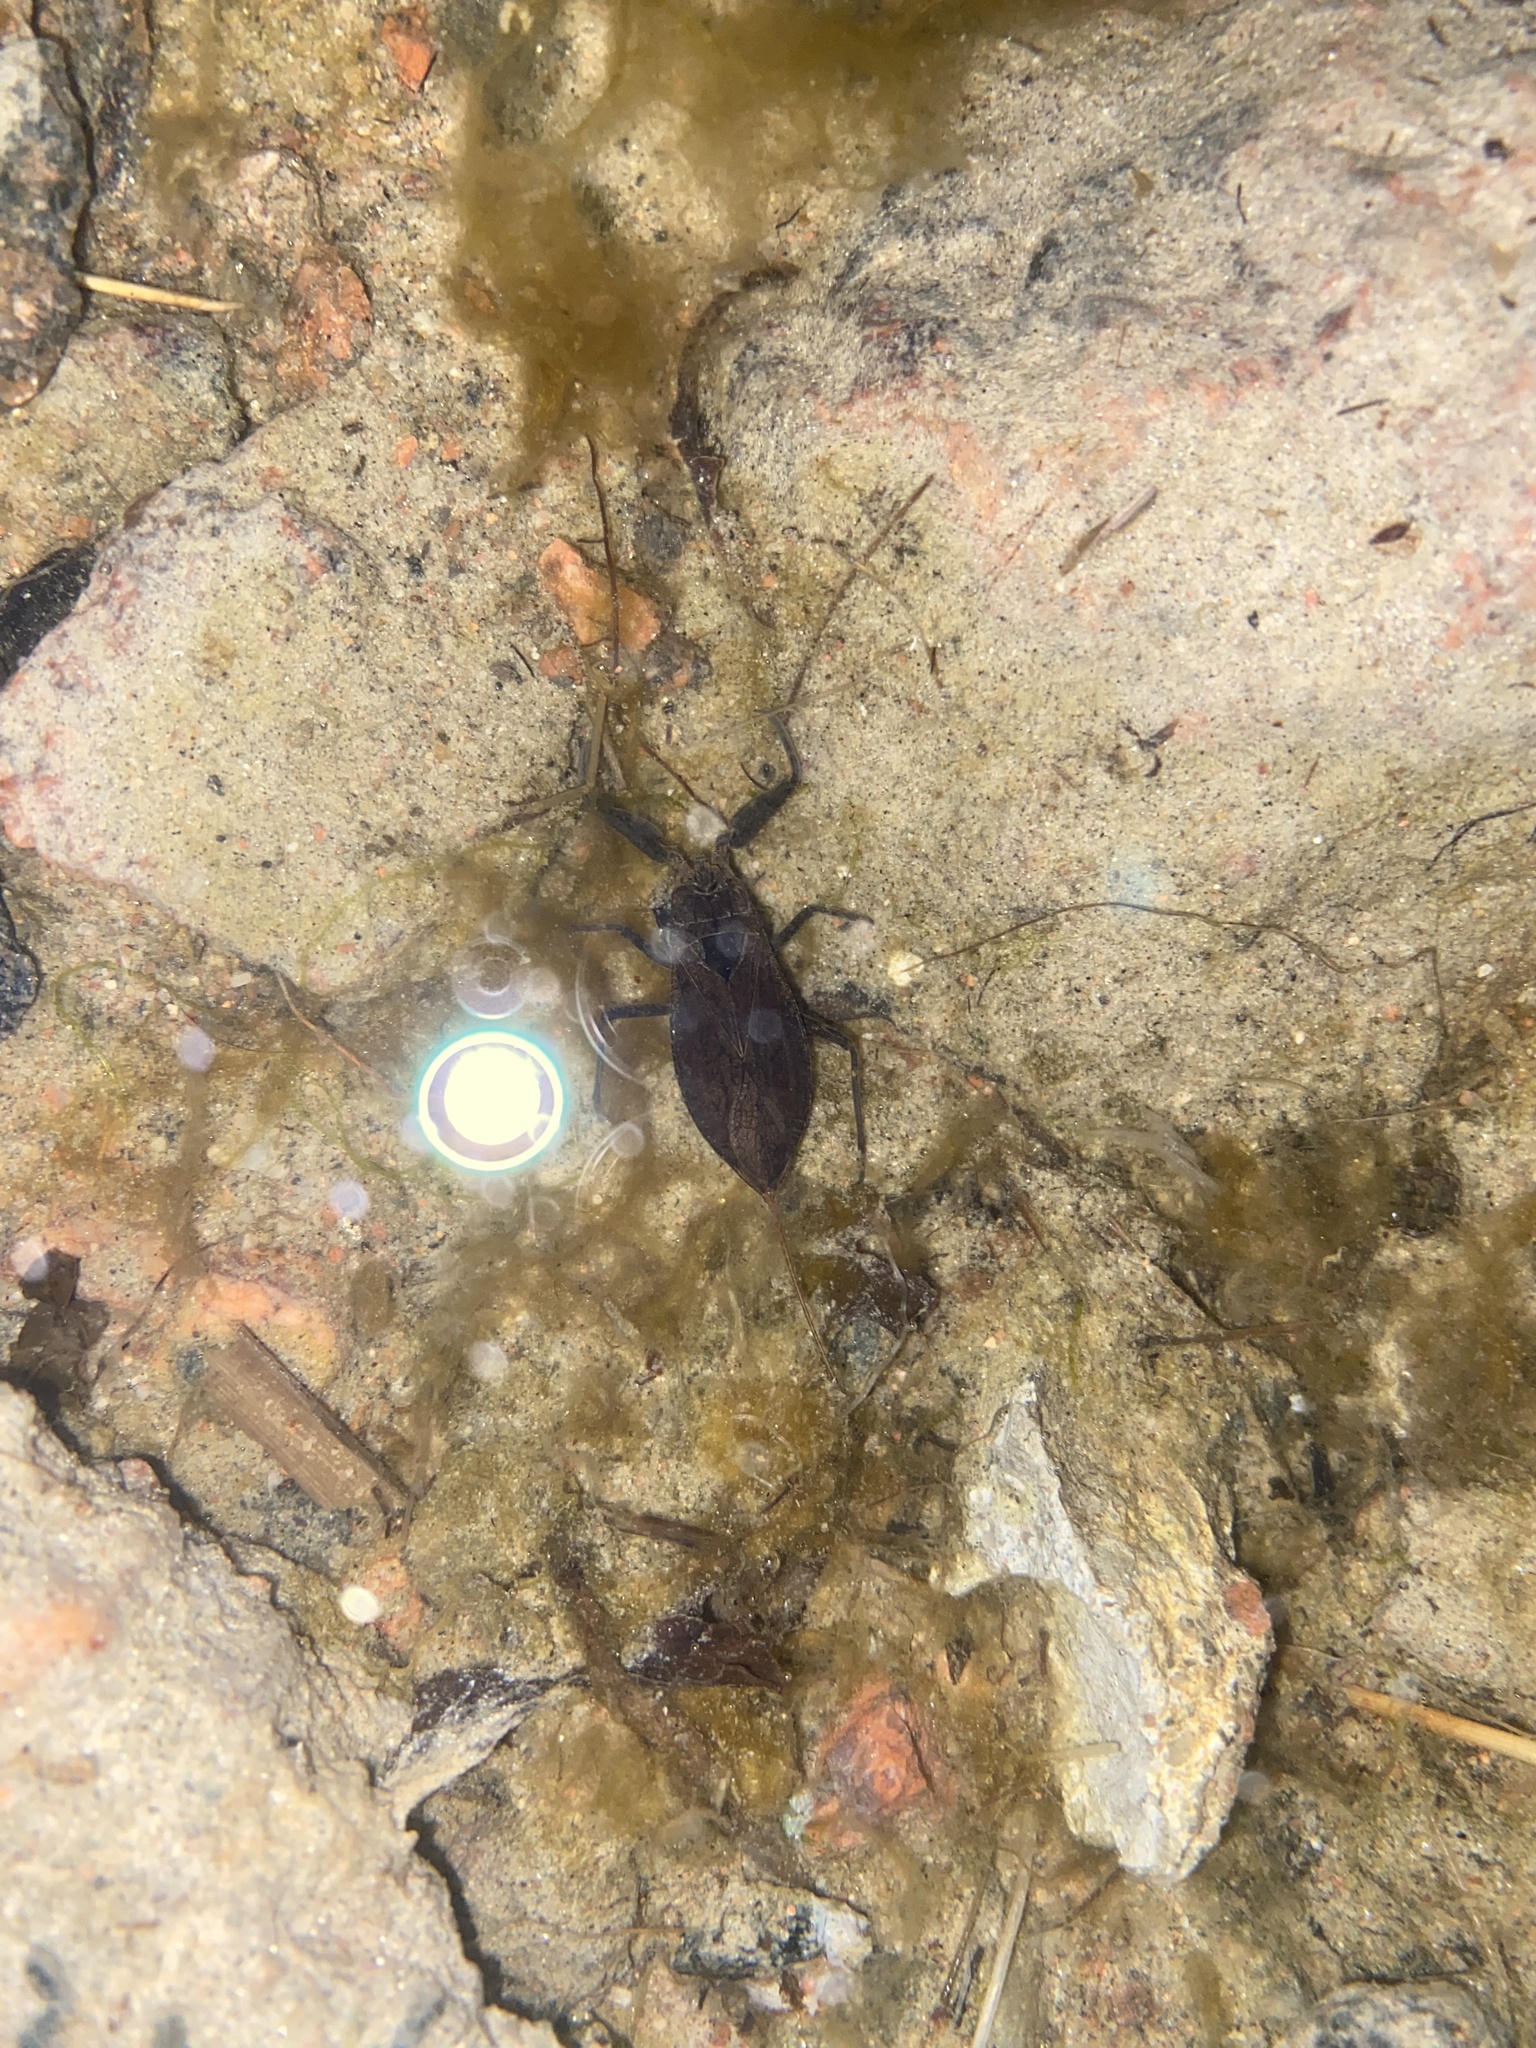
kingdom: Animalia
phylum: Arthropoda
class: Insecta
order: Hemiptera
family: Nepidae
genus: Nepa
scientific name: Nepa cinerea
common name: Water scorpion
